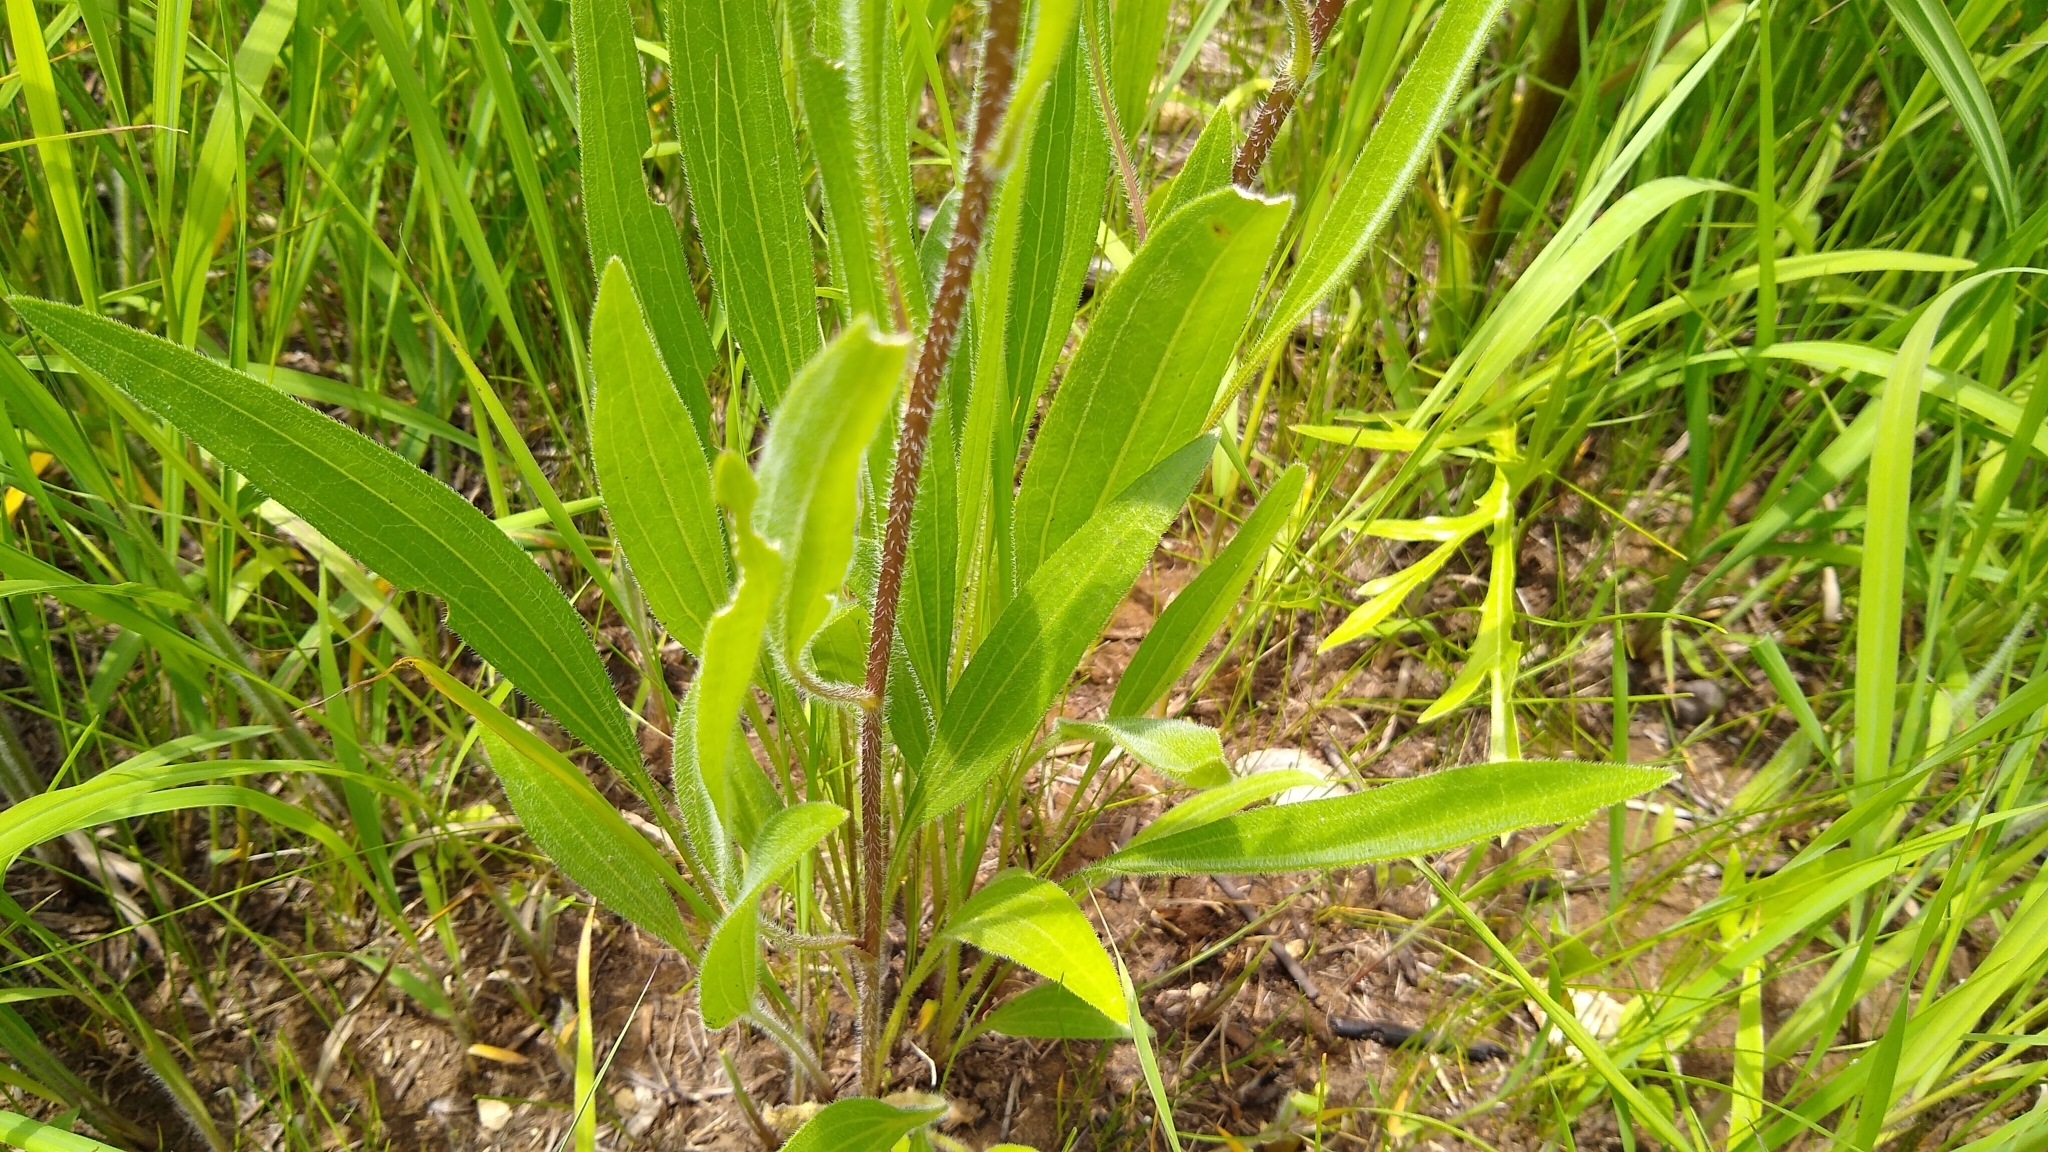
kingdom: Plantae
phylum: Tracheophyta
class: Magnoliopsida
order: Asterales
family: Asteraceae
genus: Echinacea
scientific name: Echinacea pallida
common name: Pale echinacea
